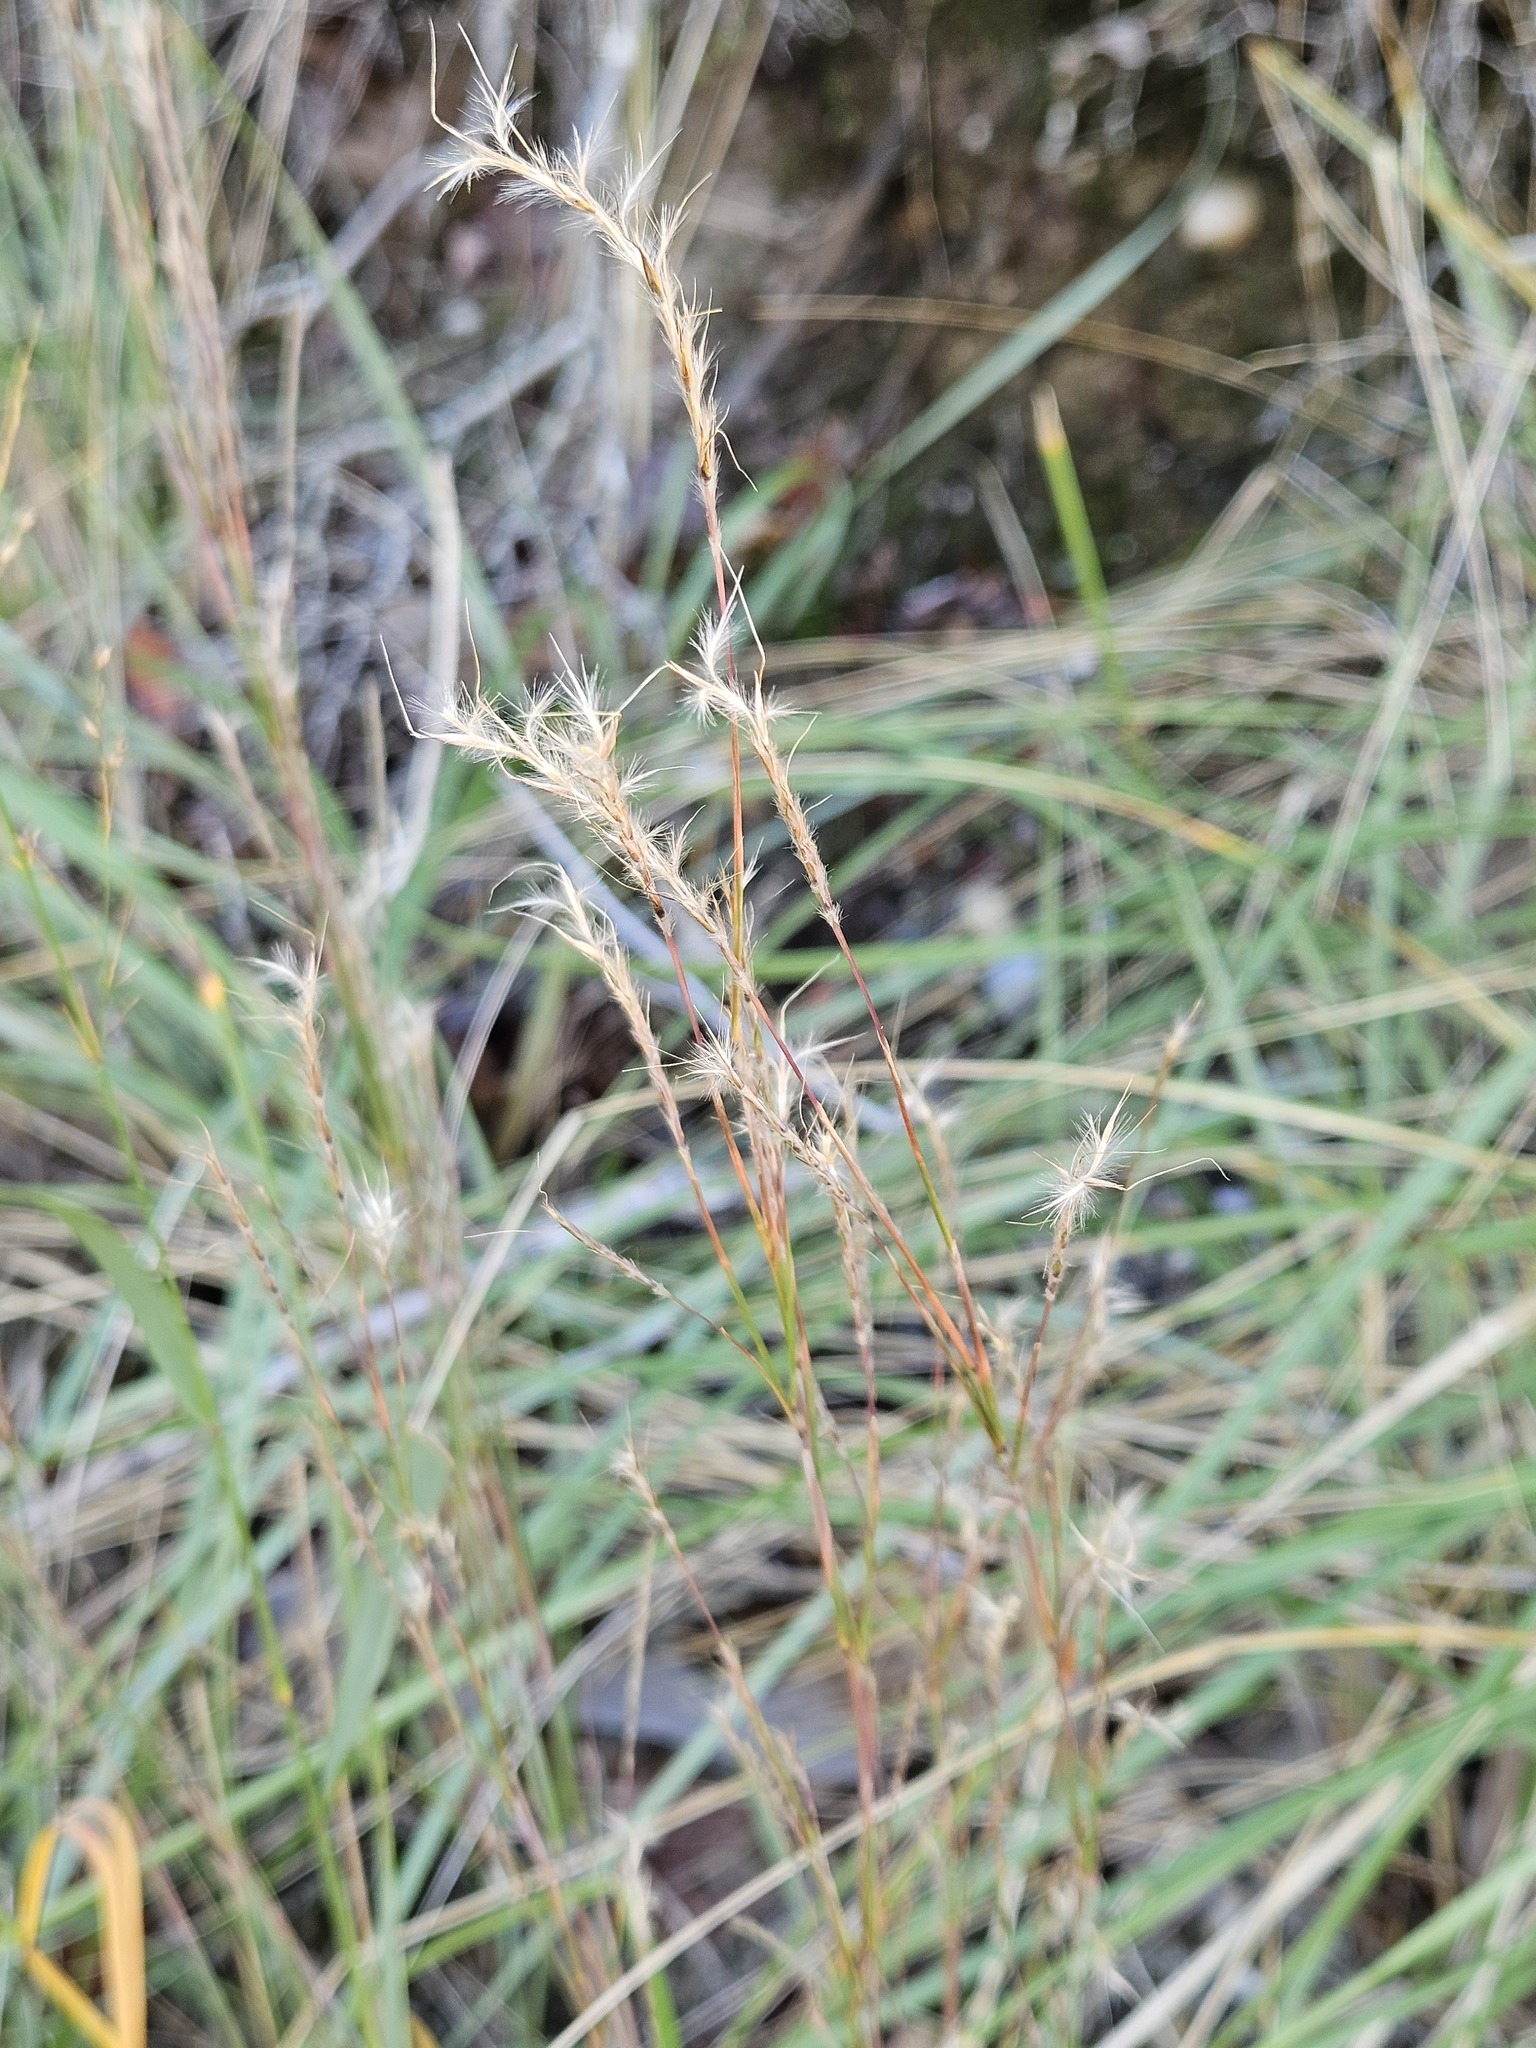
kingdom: Plantae
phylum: Tracheophyta
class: Liliopsida
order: Poales
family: Poaceae
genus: Schizachyrium
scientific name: Schizachyrium scoparium
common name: Little bluestem
